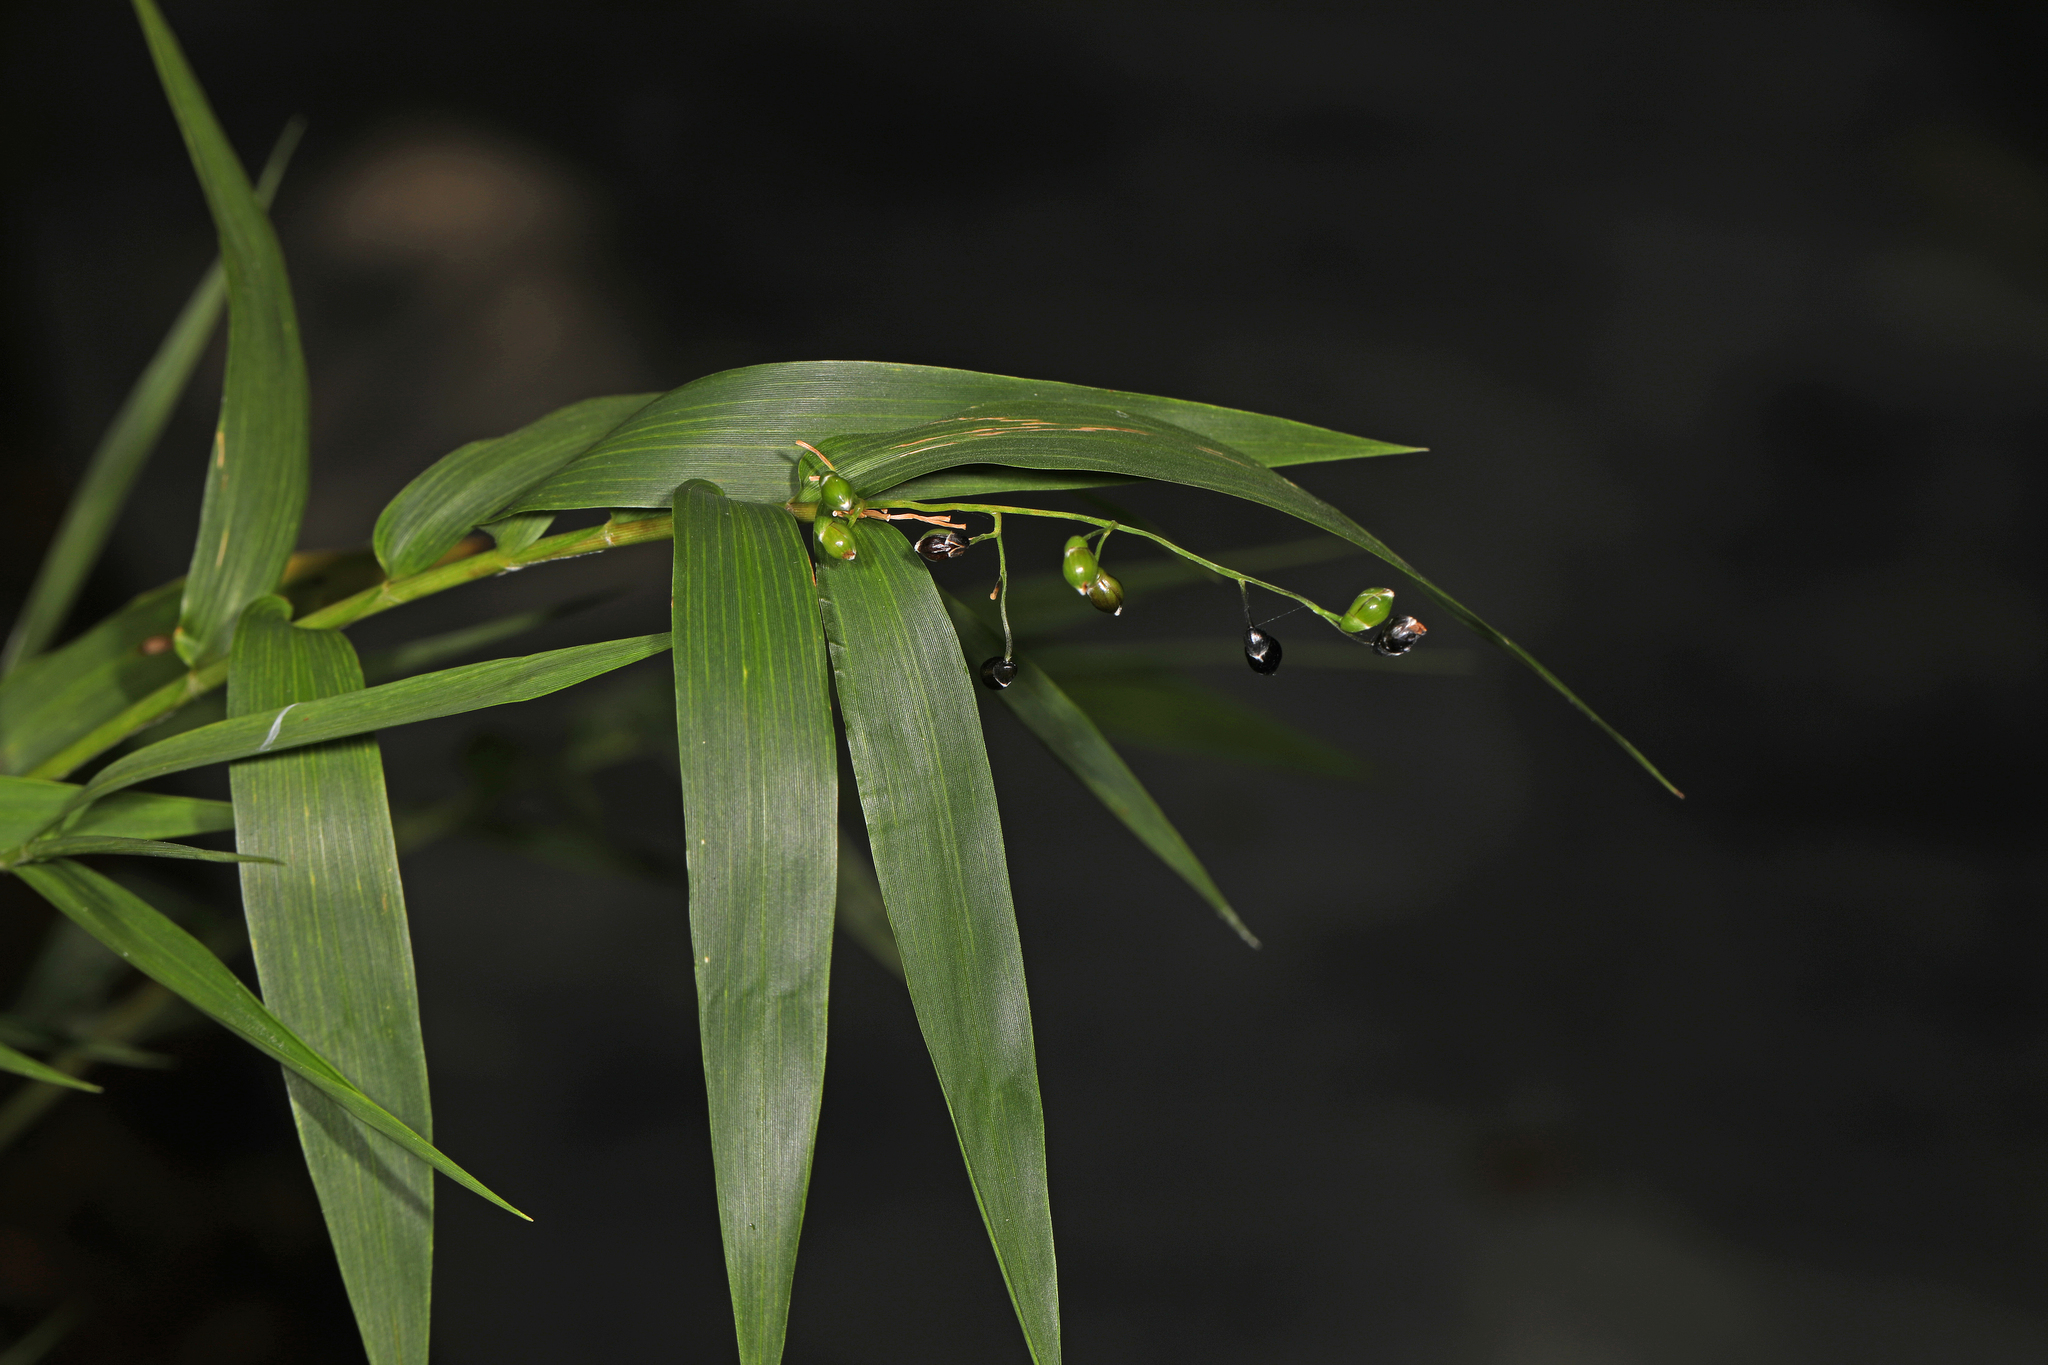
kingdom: Plantae
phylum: Tracheophyta
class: Liliopsida
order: Poales
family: Poaceae
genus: Lasiacis
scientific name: Lasiacis divaricata
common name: Smallcane
